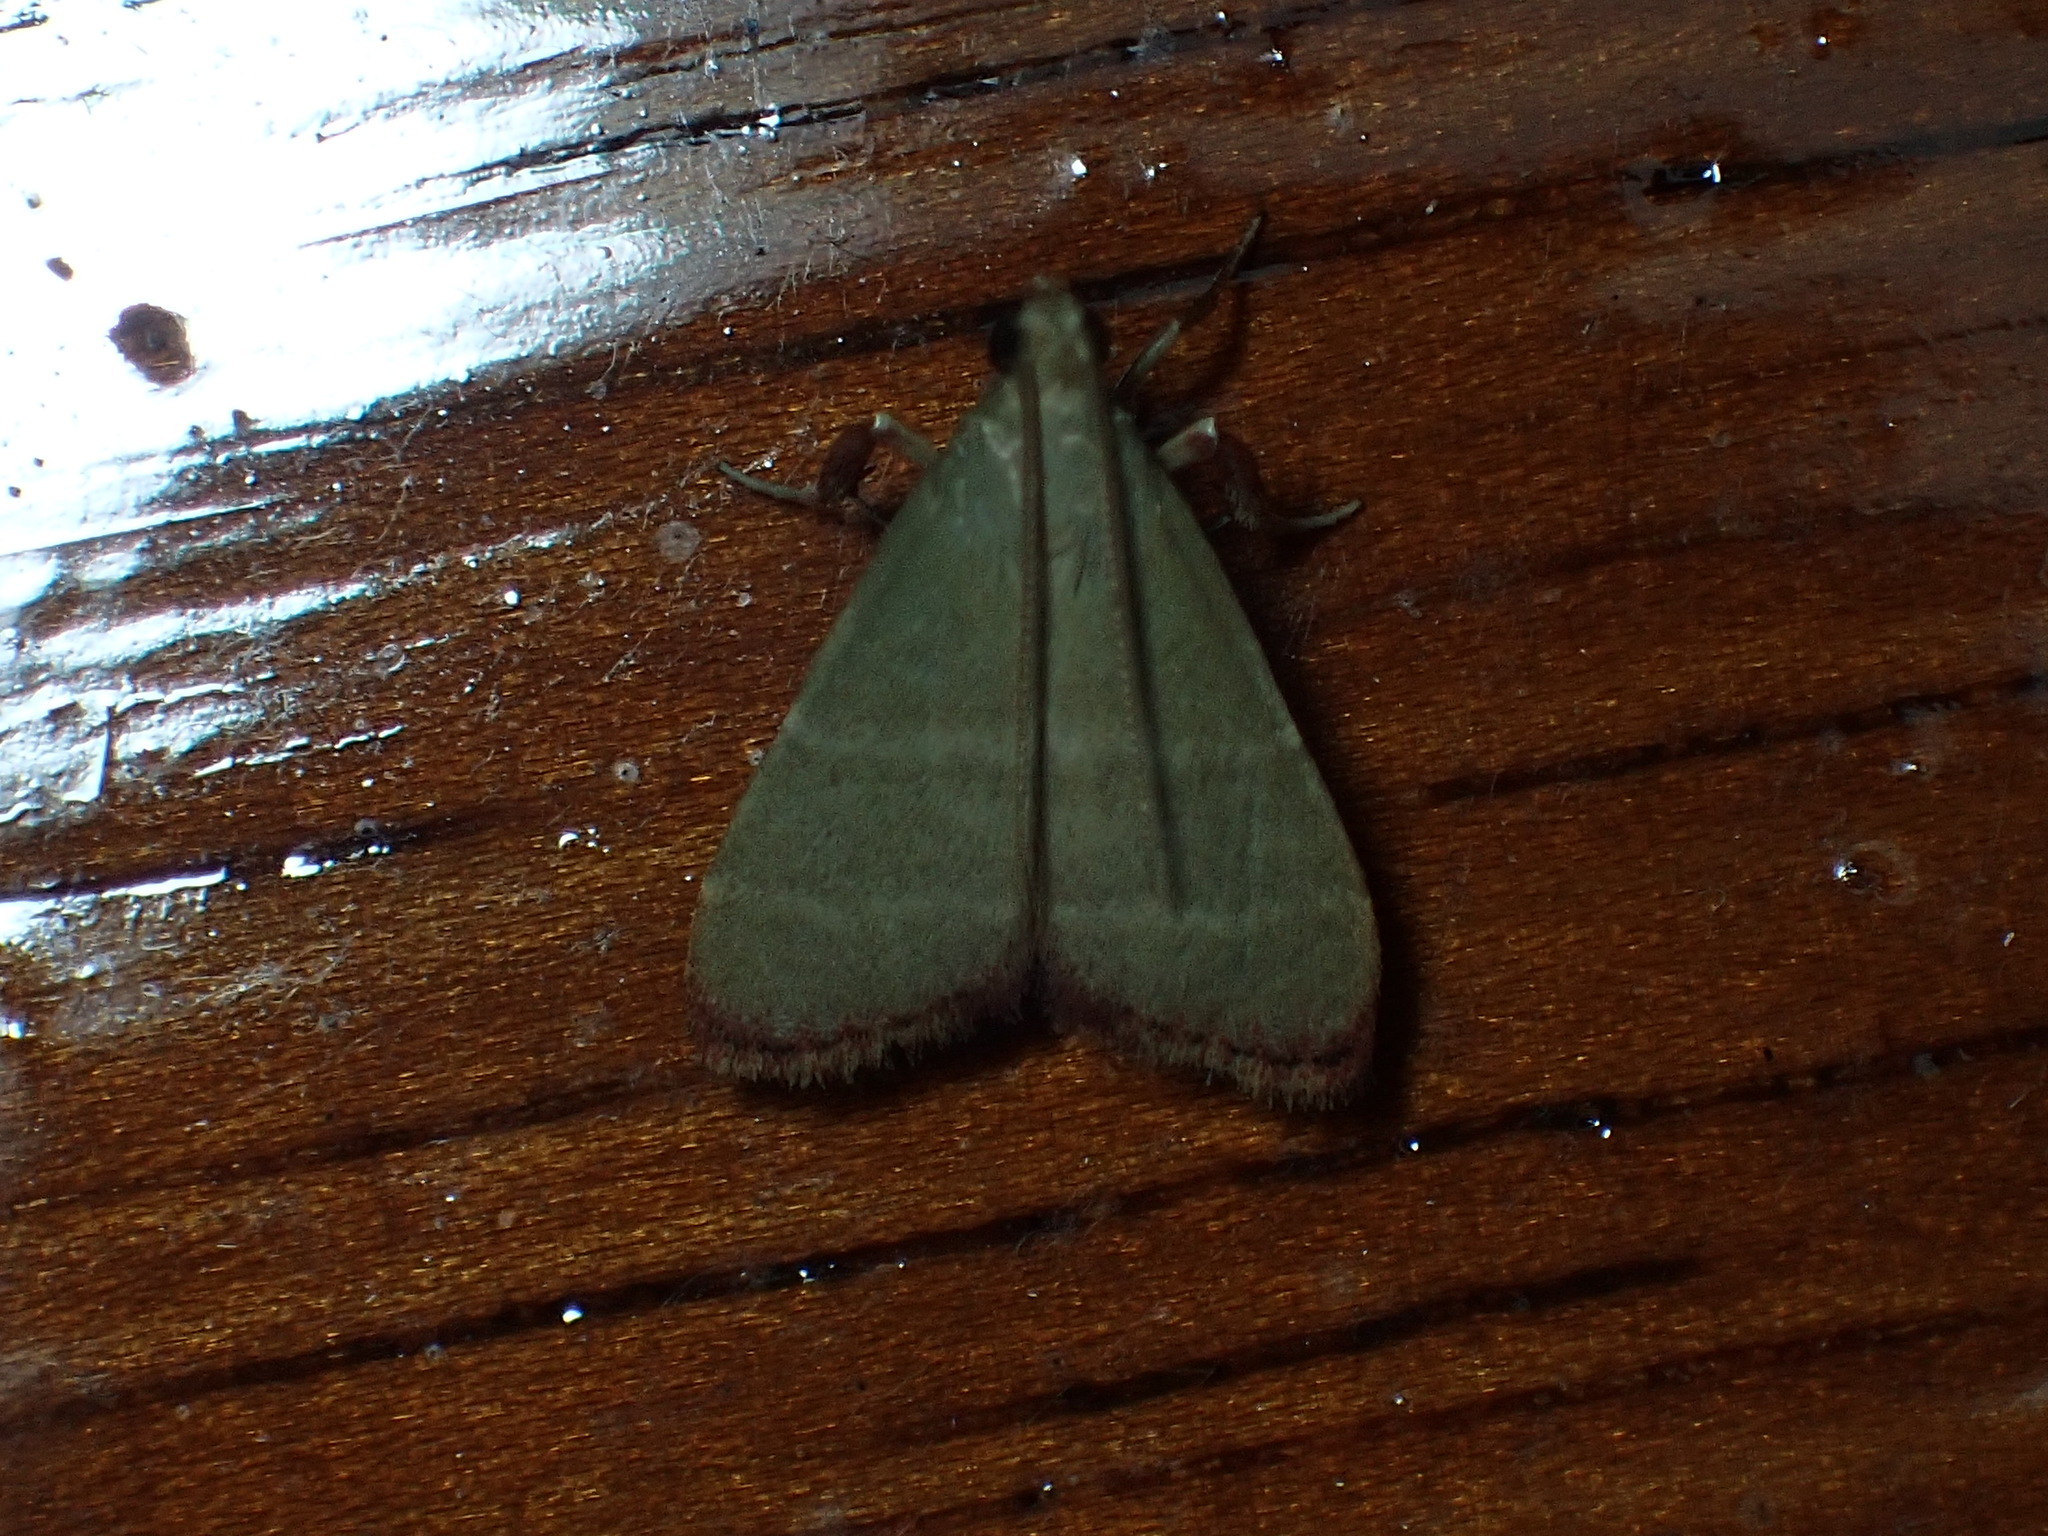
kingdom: Animalia
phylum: Arthropoda
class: Insecta
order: Lepidoptera
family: Pyralidae
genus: Arta
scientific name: Arta olivalis
